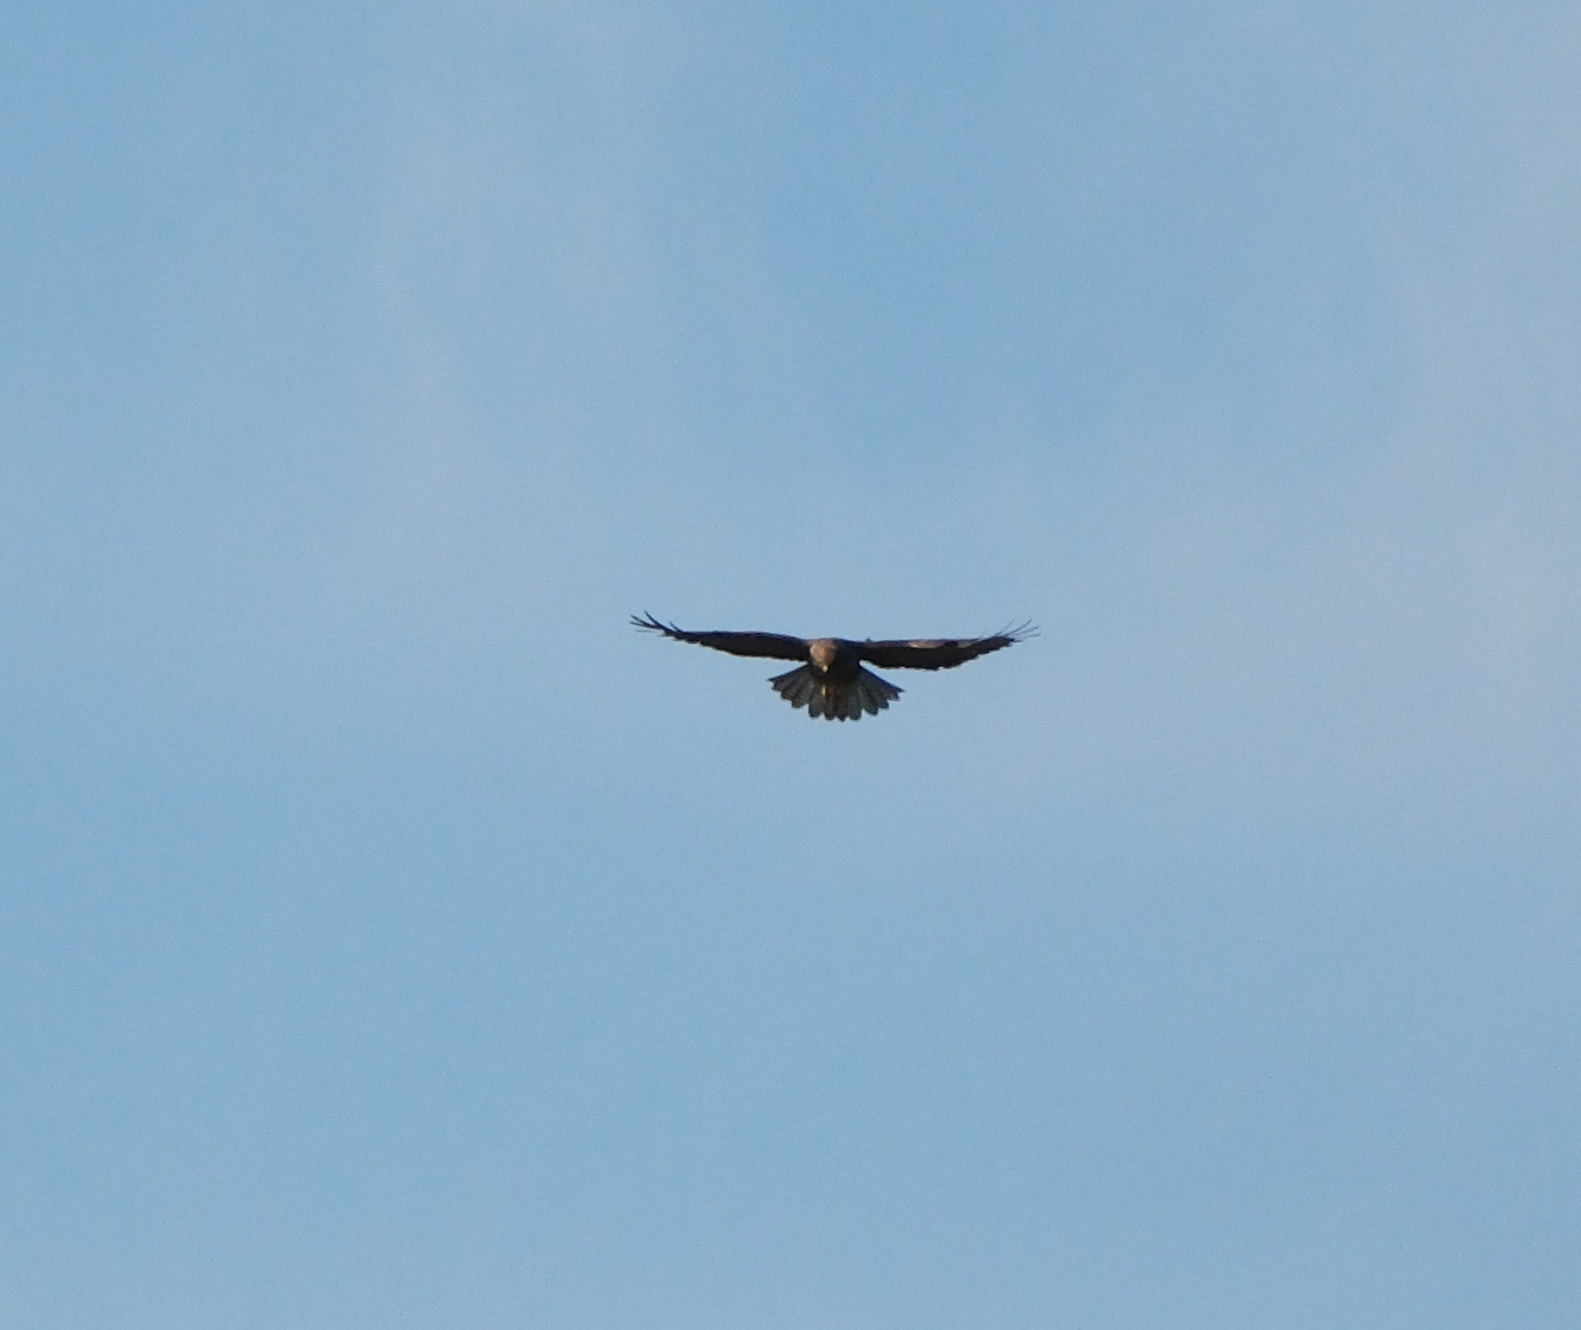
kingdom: Animalia
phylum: Chordata
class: Aves
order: Accipitriformes
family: Accipitridae
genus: Buteo
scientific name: Buteo buteo
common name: Common buzzard
